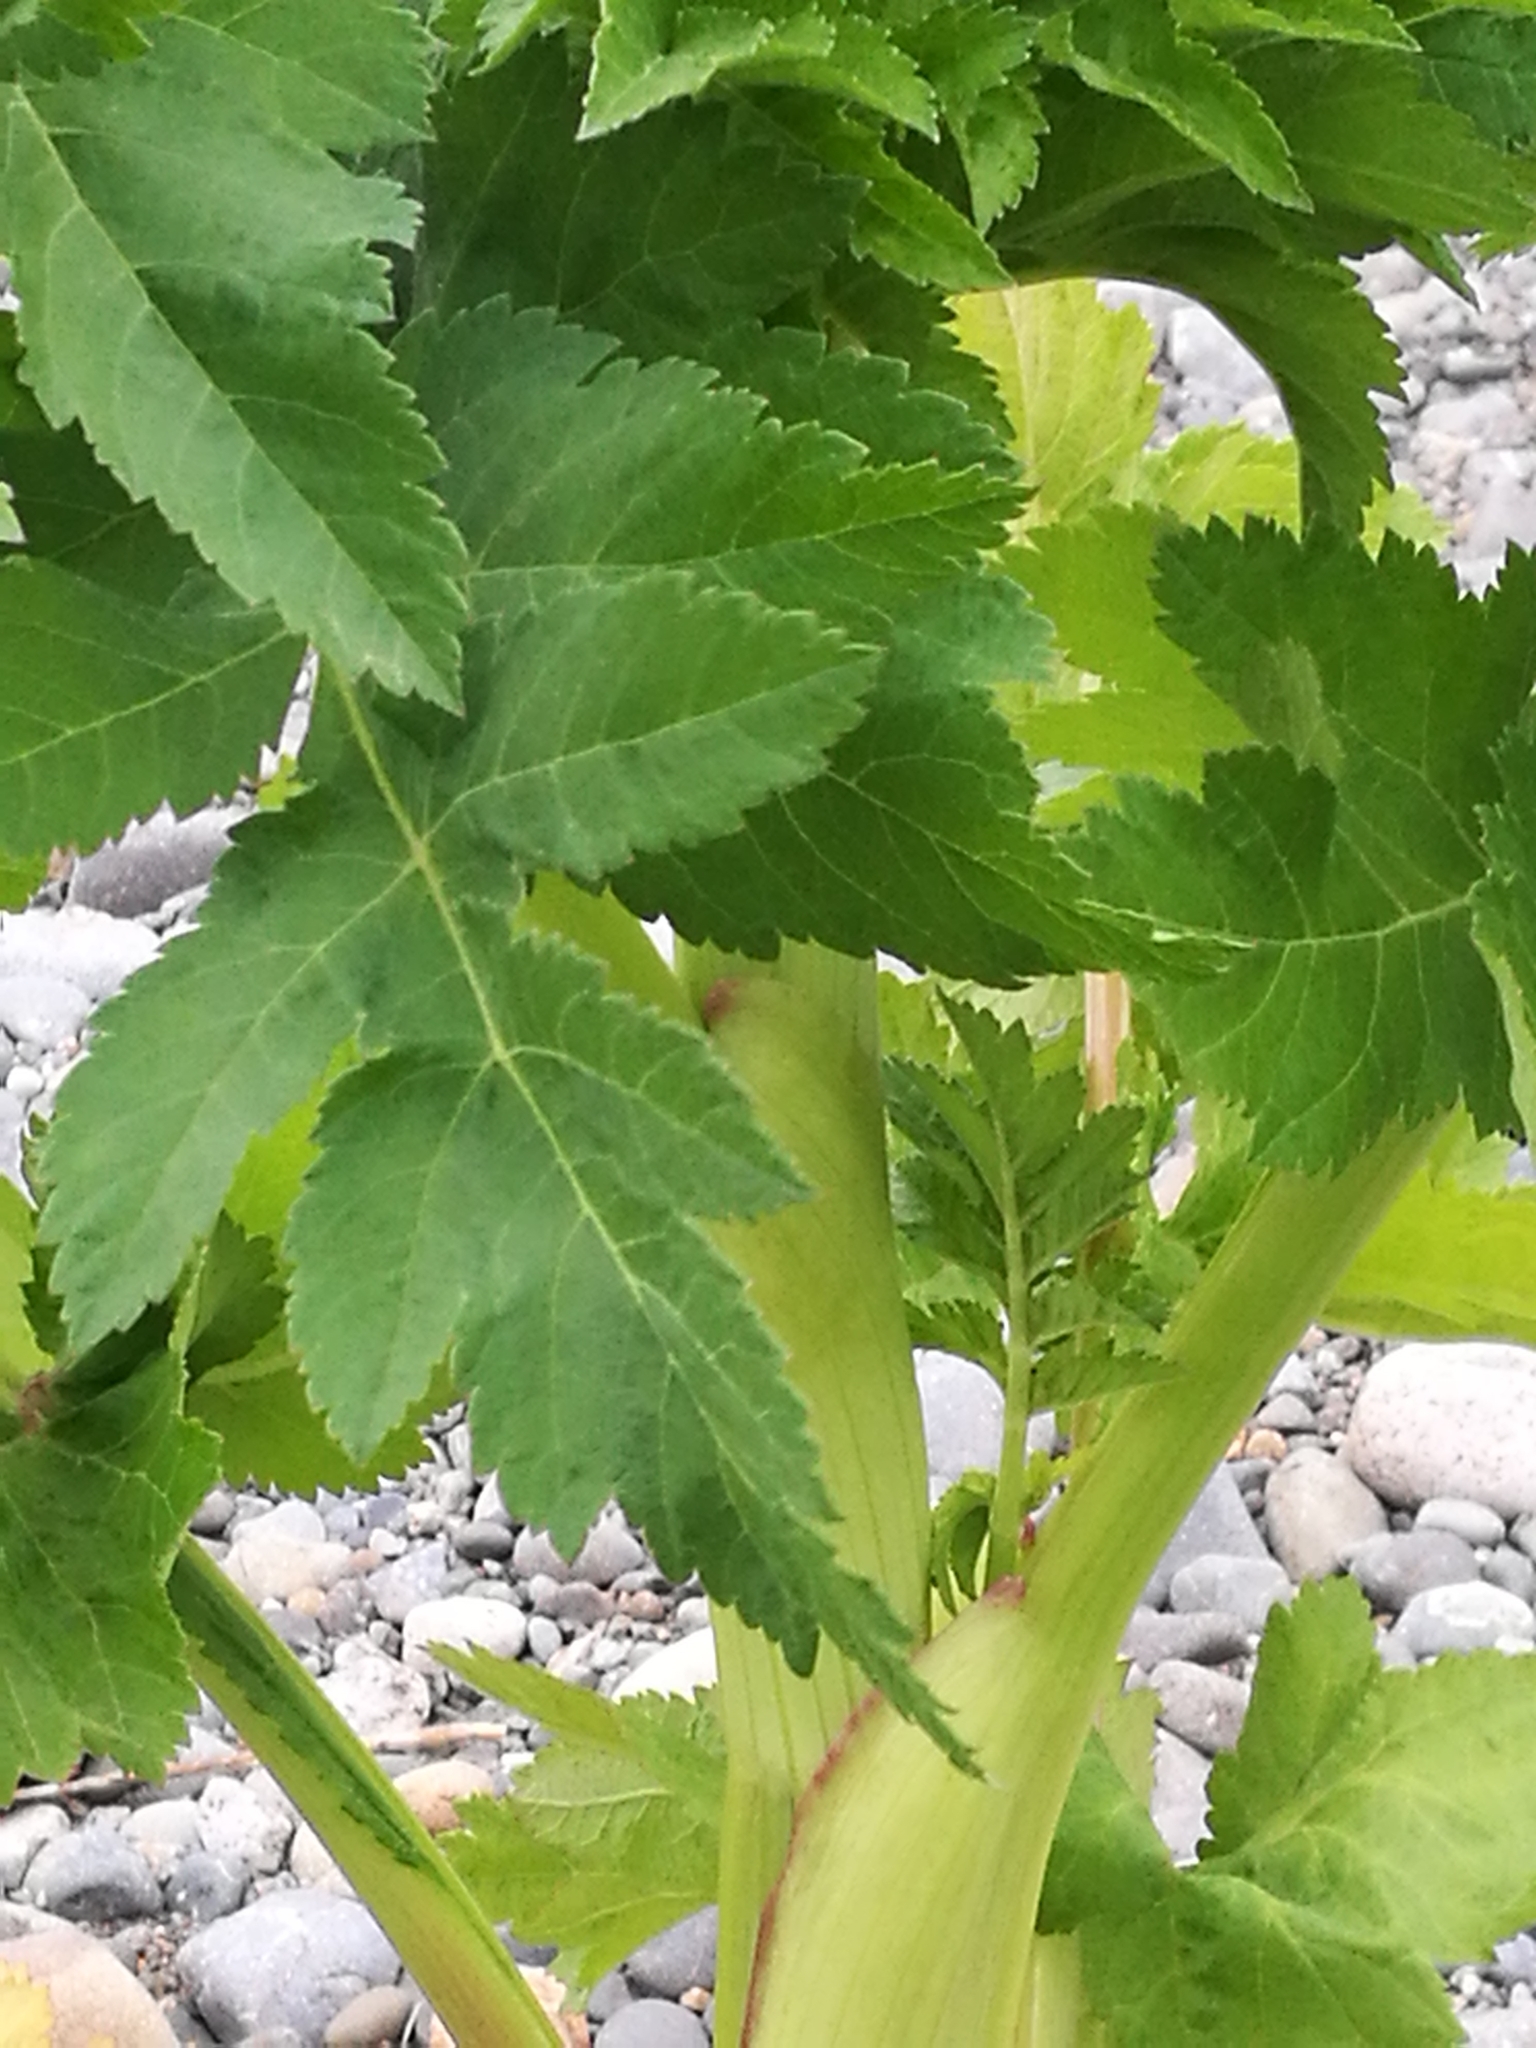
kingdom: Plantae
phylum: Tracheophyta
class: Magnoliopsida
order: Apiales
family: Apiaceae
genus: Pastinaca
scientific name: Pastinaca sativa
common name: Wild parsnip
